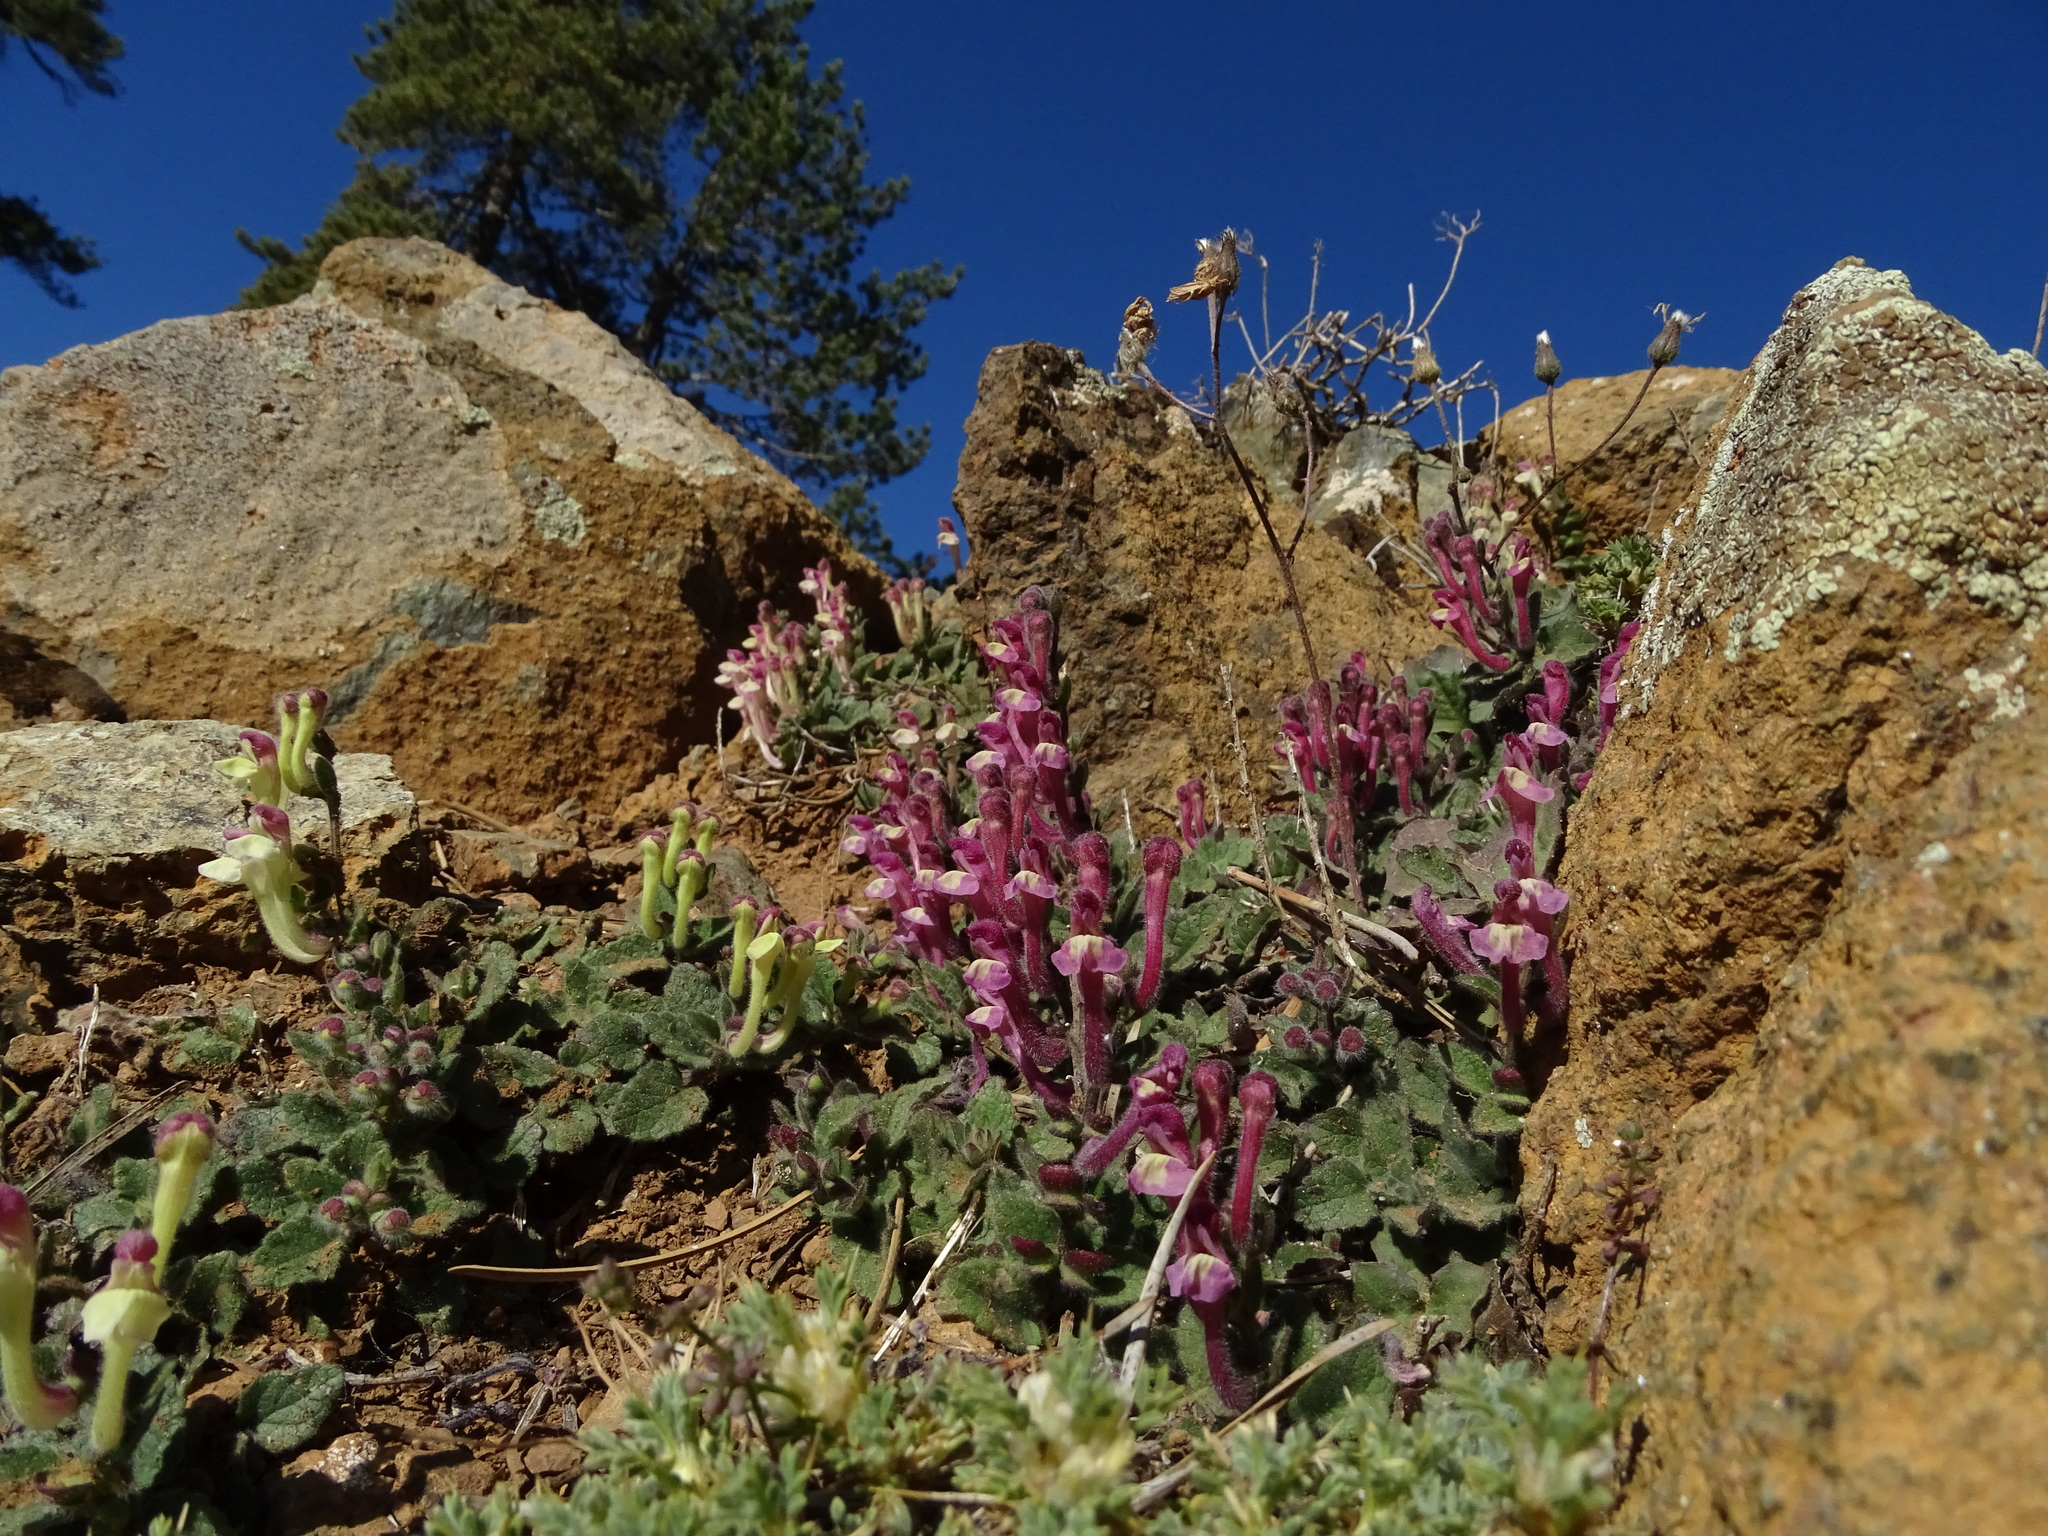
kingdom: Plantae
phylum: Tracheophyta
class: Magnoliopsida
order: Lamiales
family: Lamiaceae
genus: Scutellaria
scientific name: Scutellaria cypria
